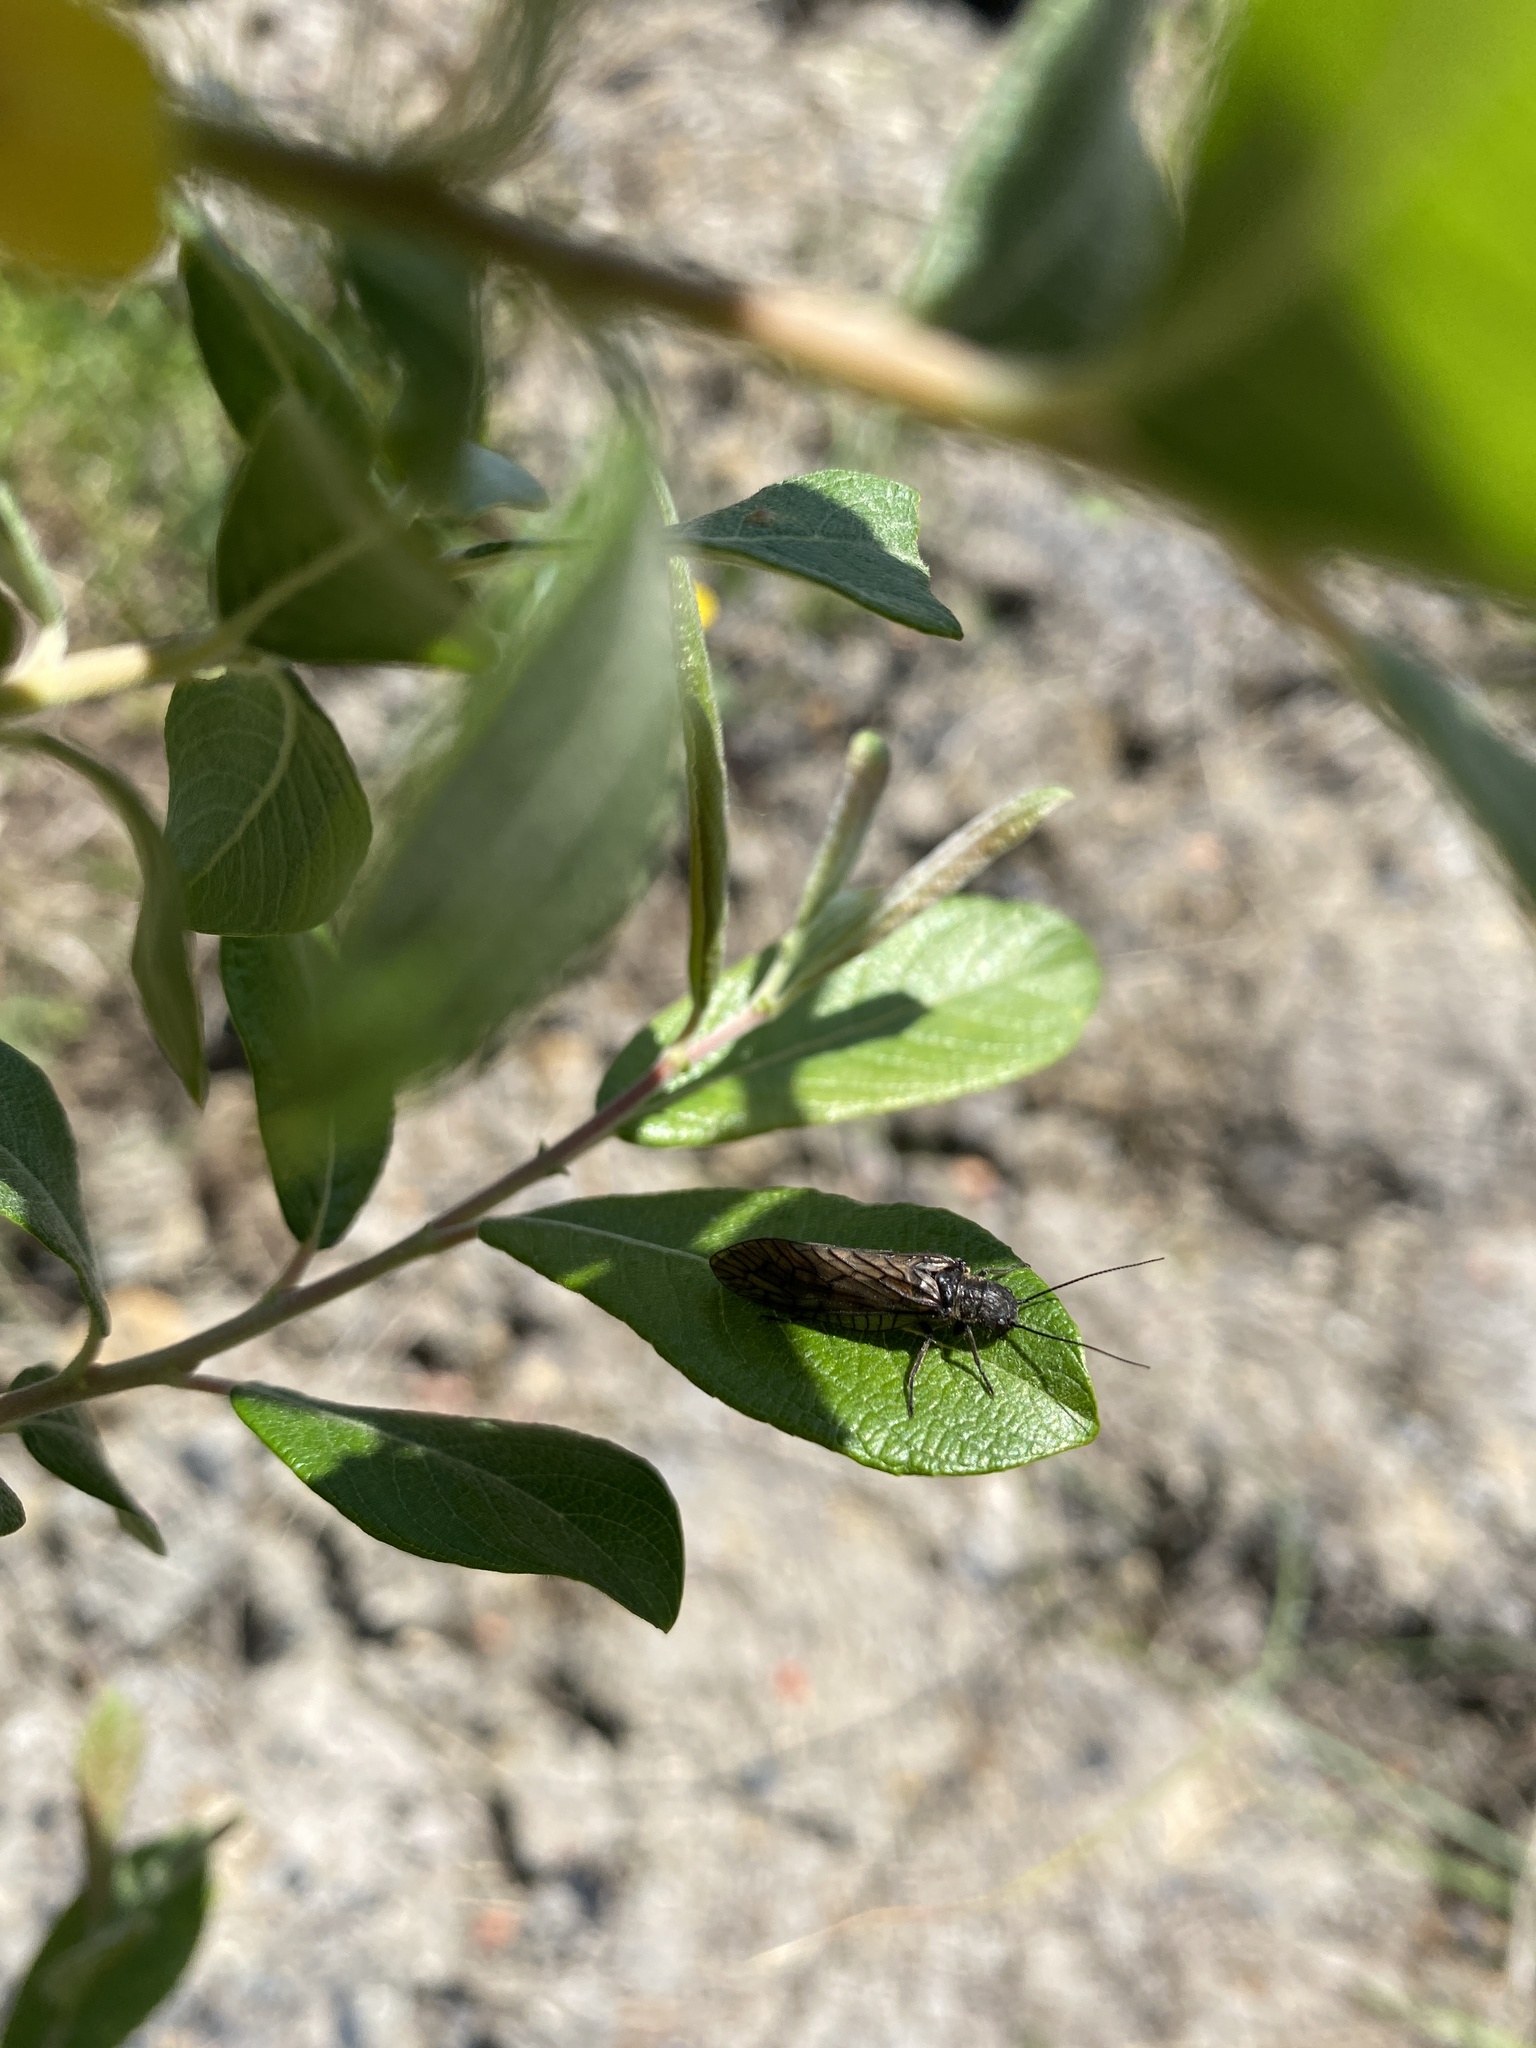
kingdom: Animalia
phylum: Arthropoda
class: Insecta
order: Megaloptera
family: Sialidae
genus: Sialis
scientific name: Sialis
